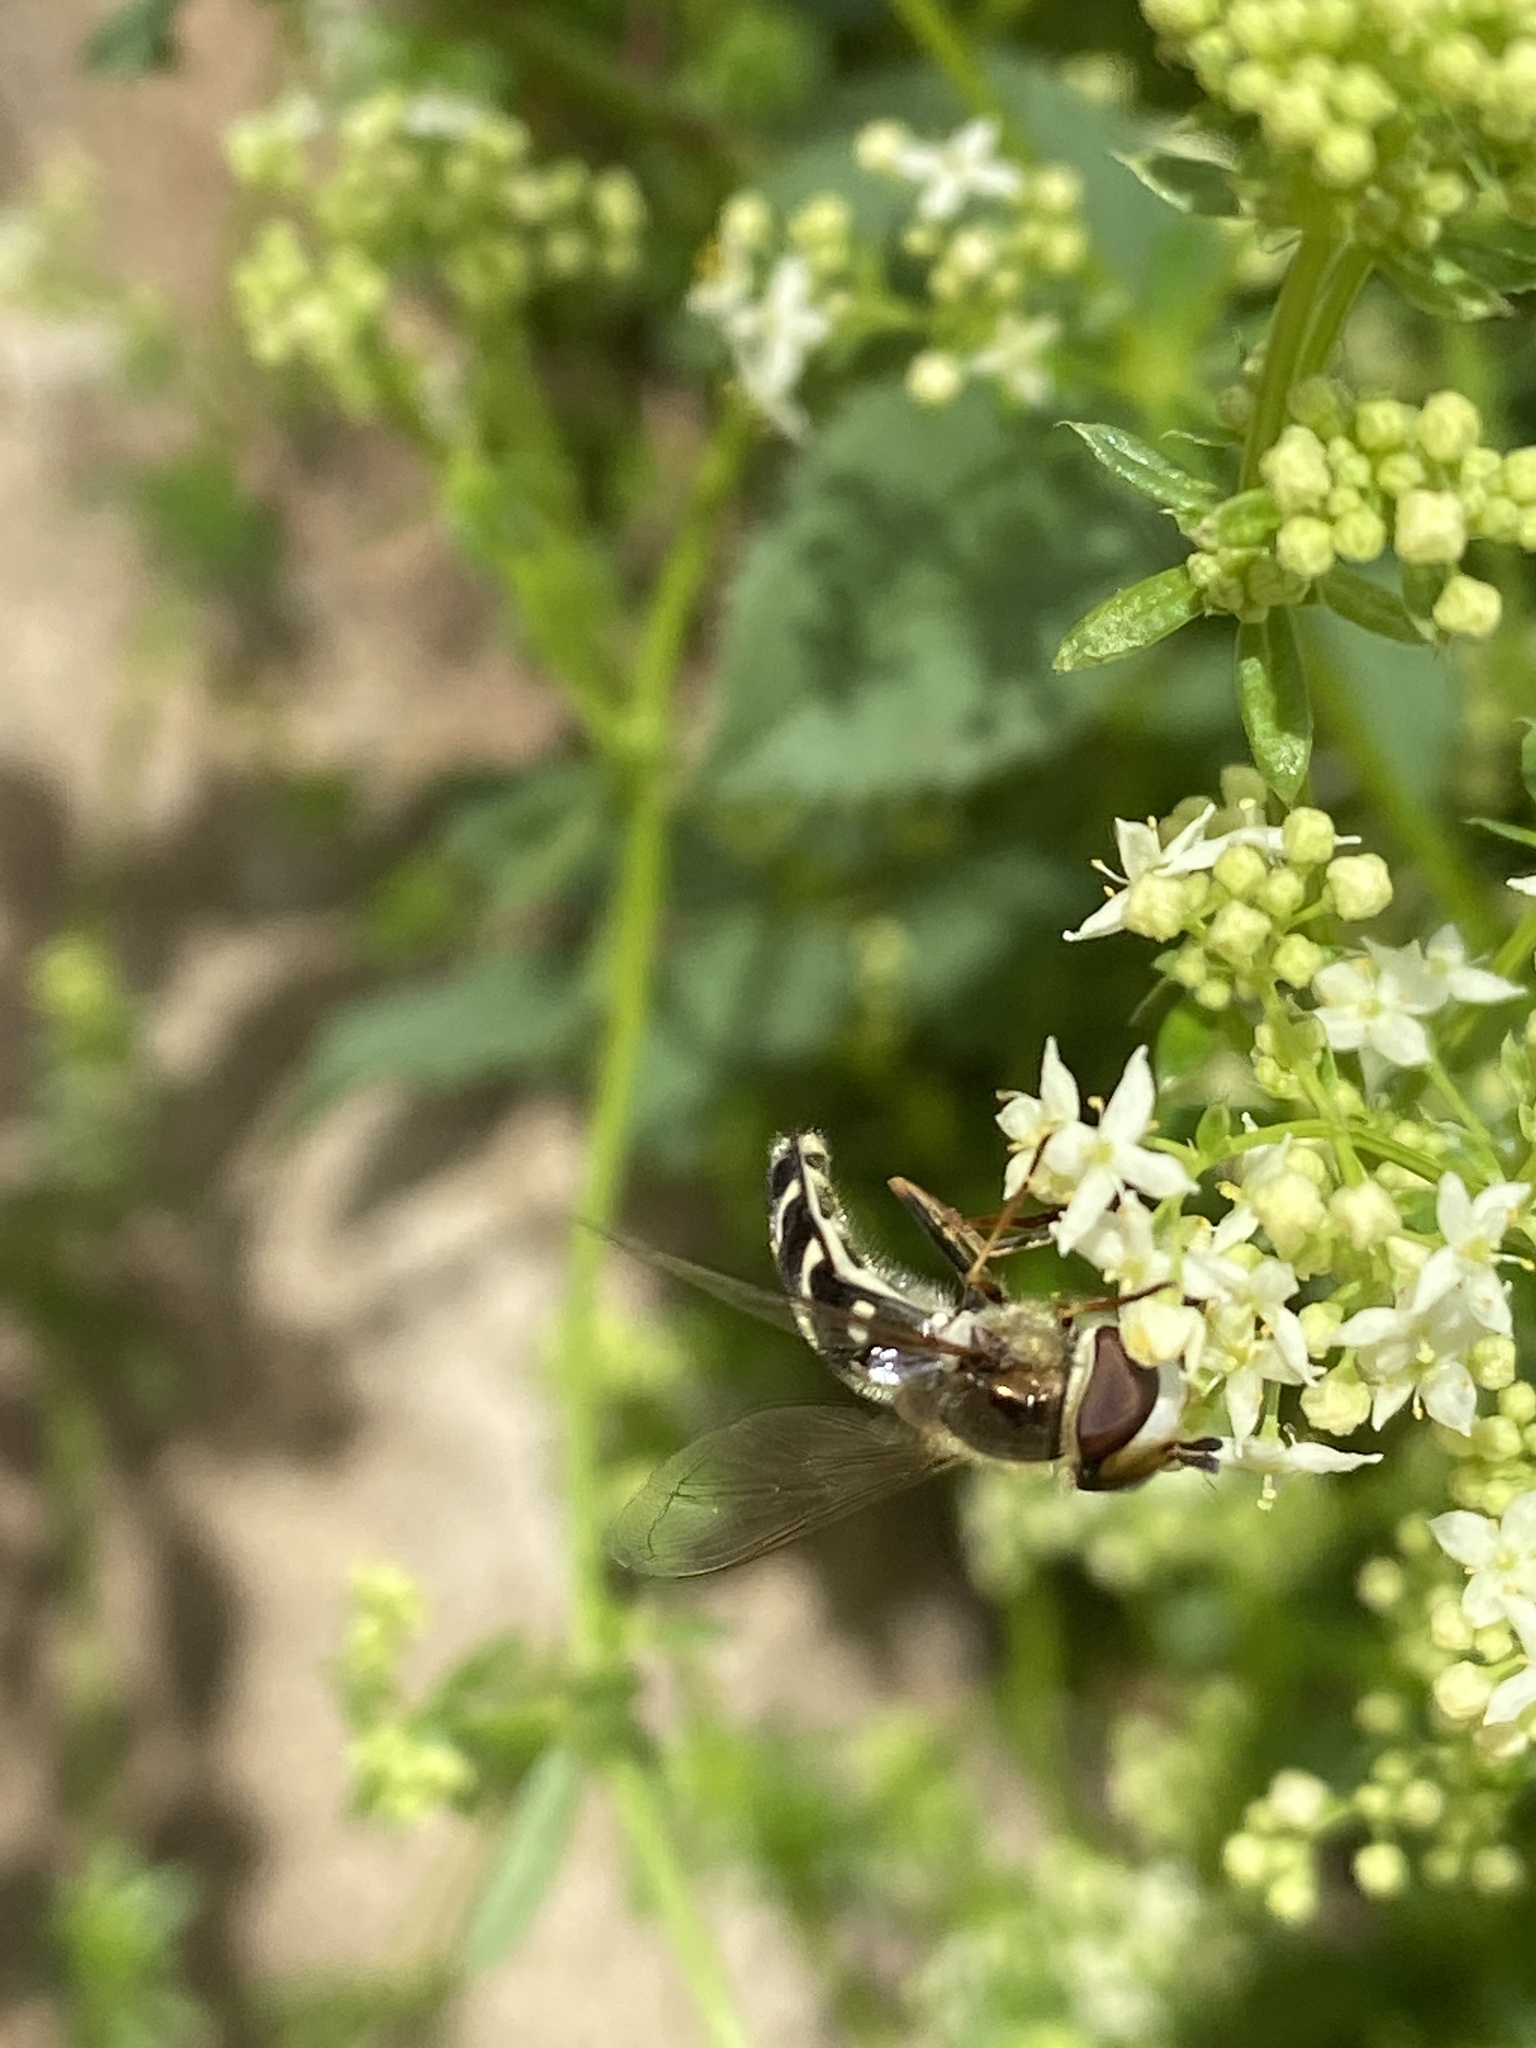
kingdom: Animalia
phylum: Arthropoda
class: Insecta
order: Diptera
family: Syrphidae
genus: Scaeva
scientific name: Scaeva pyrastri
